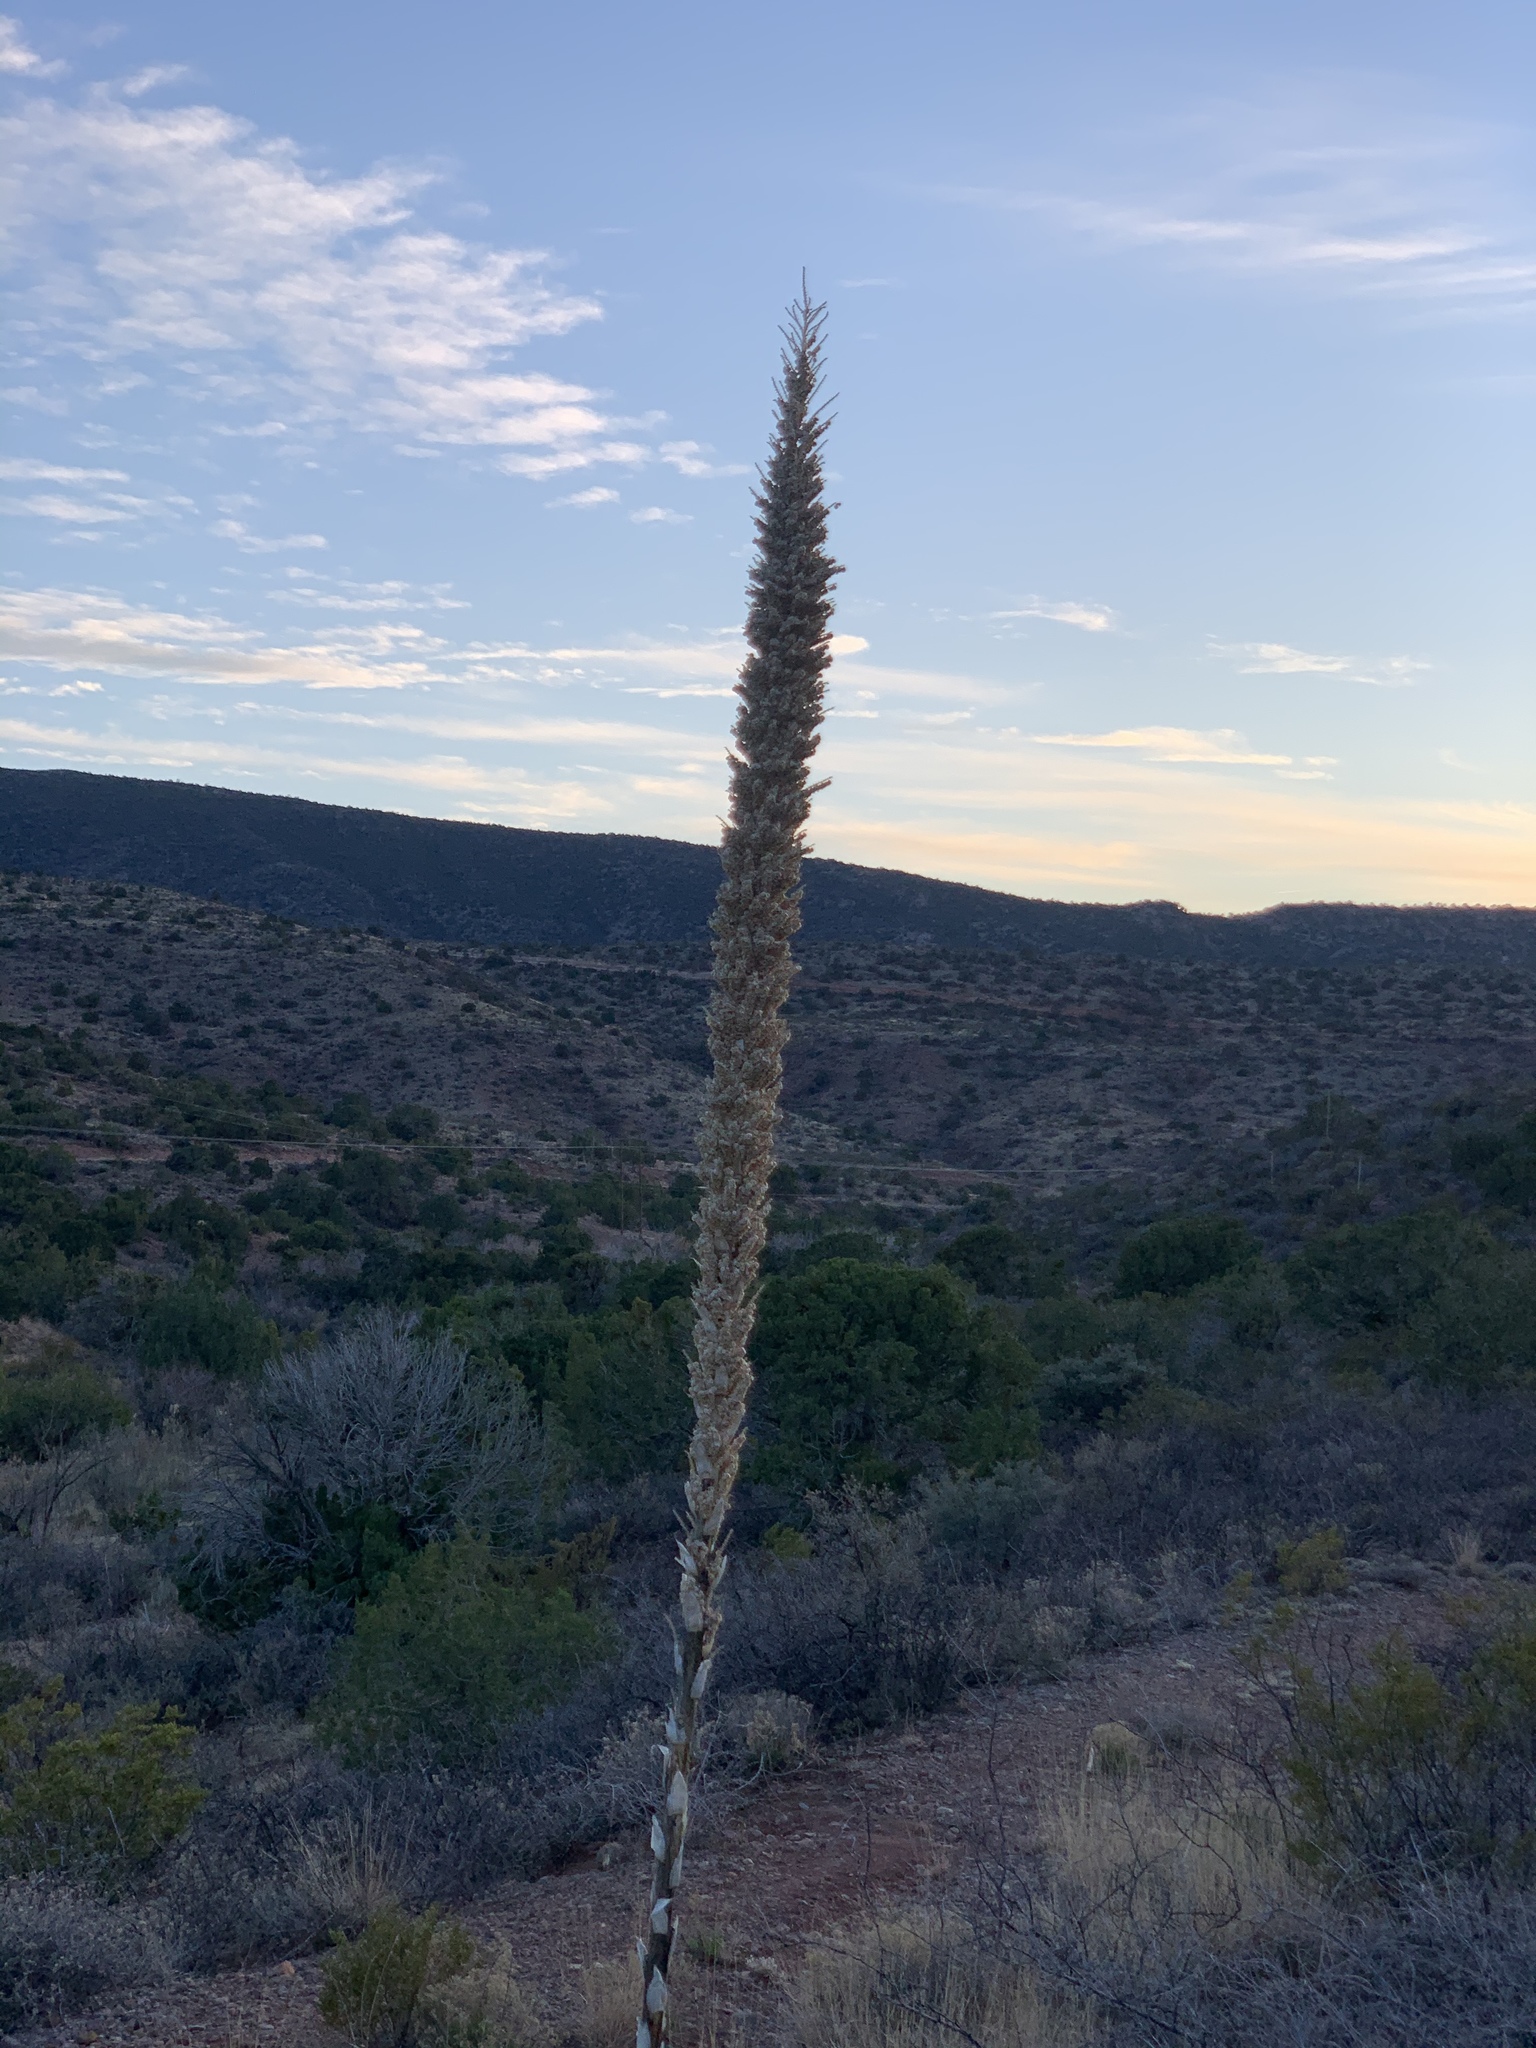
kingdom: Plantae
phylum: Tracheophyta
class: Liliopsida
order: Asparagales
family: Asparagaceae
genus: Dasylirion
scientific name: Dasylirion wheeleri
